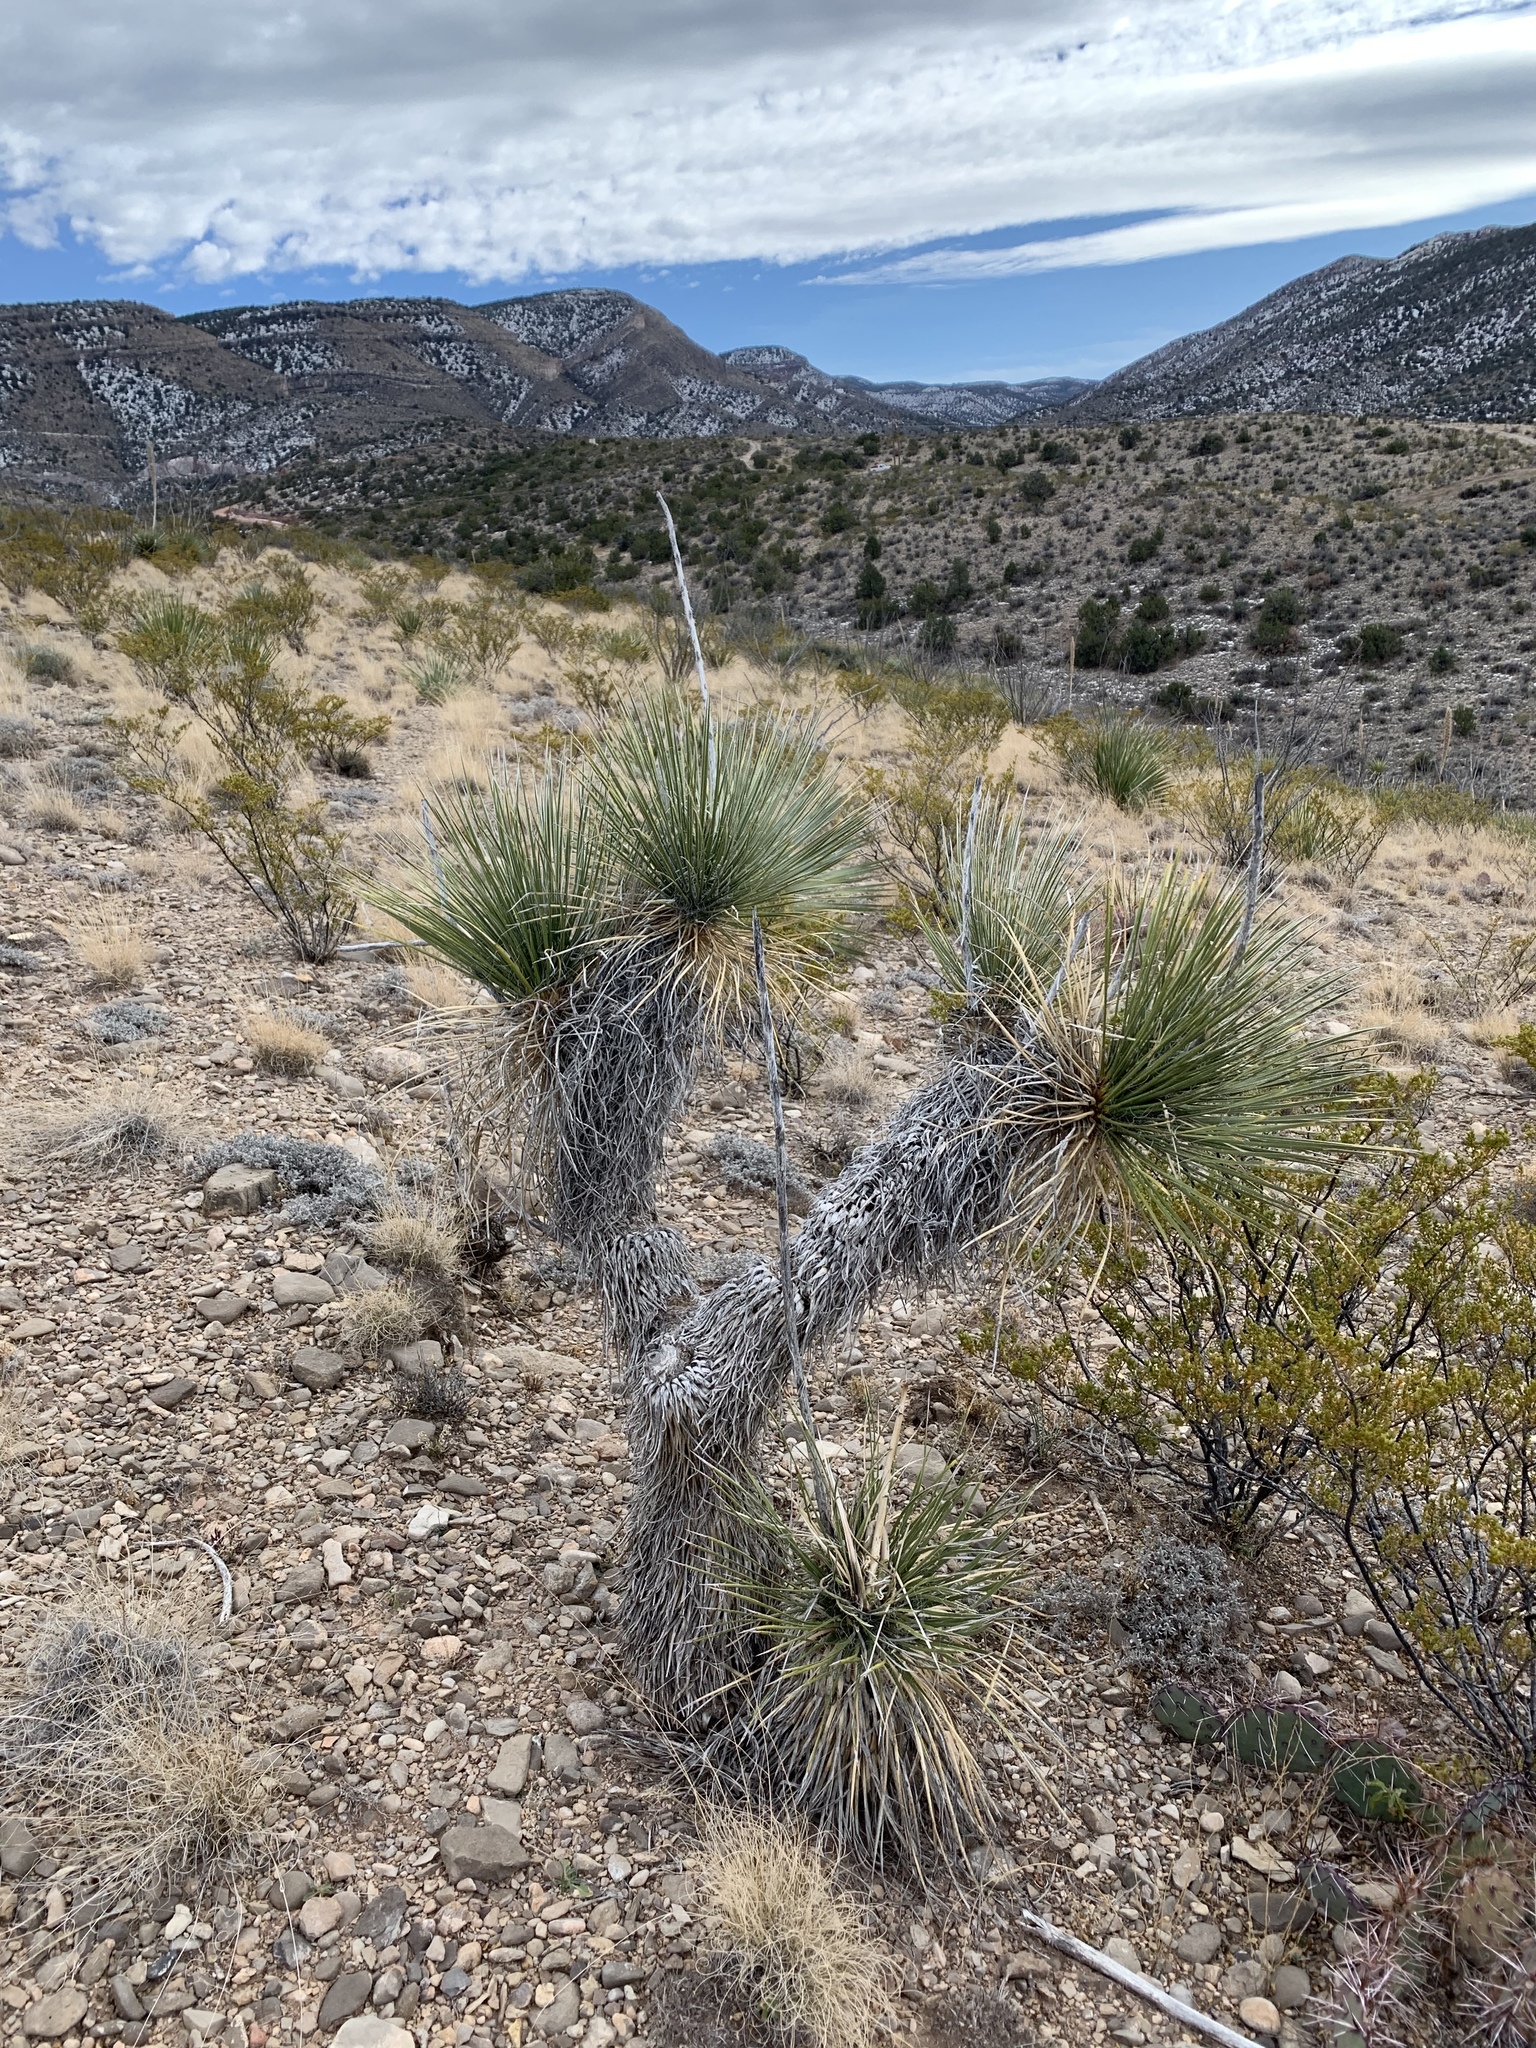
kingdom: Plantae
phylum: Tracheophyta
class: Liliopsida
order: Asparagales
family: Asparagaceae
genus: Yucca
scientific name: Yucca elata
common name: Palmella
